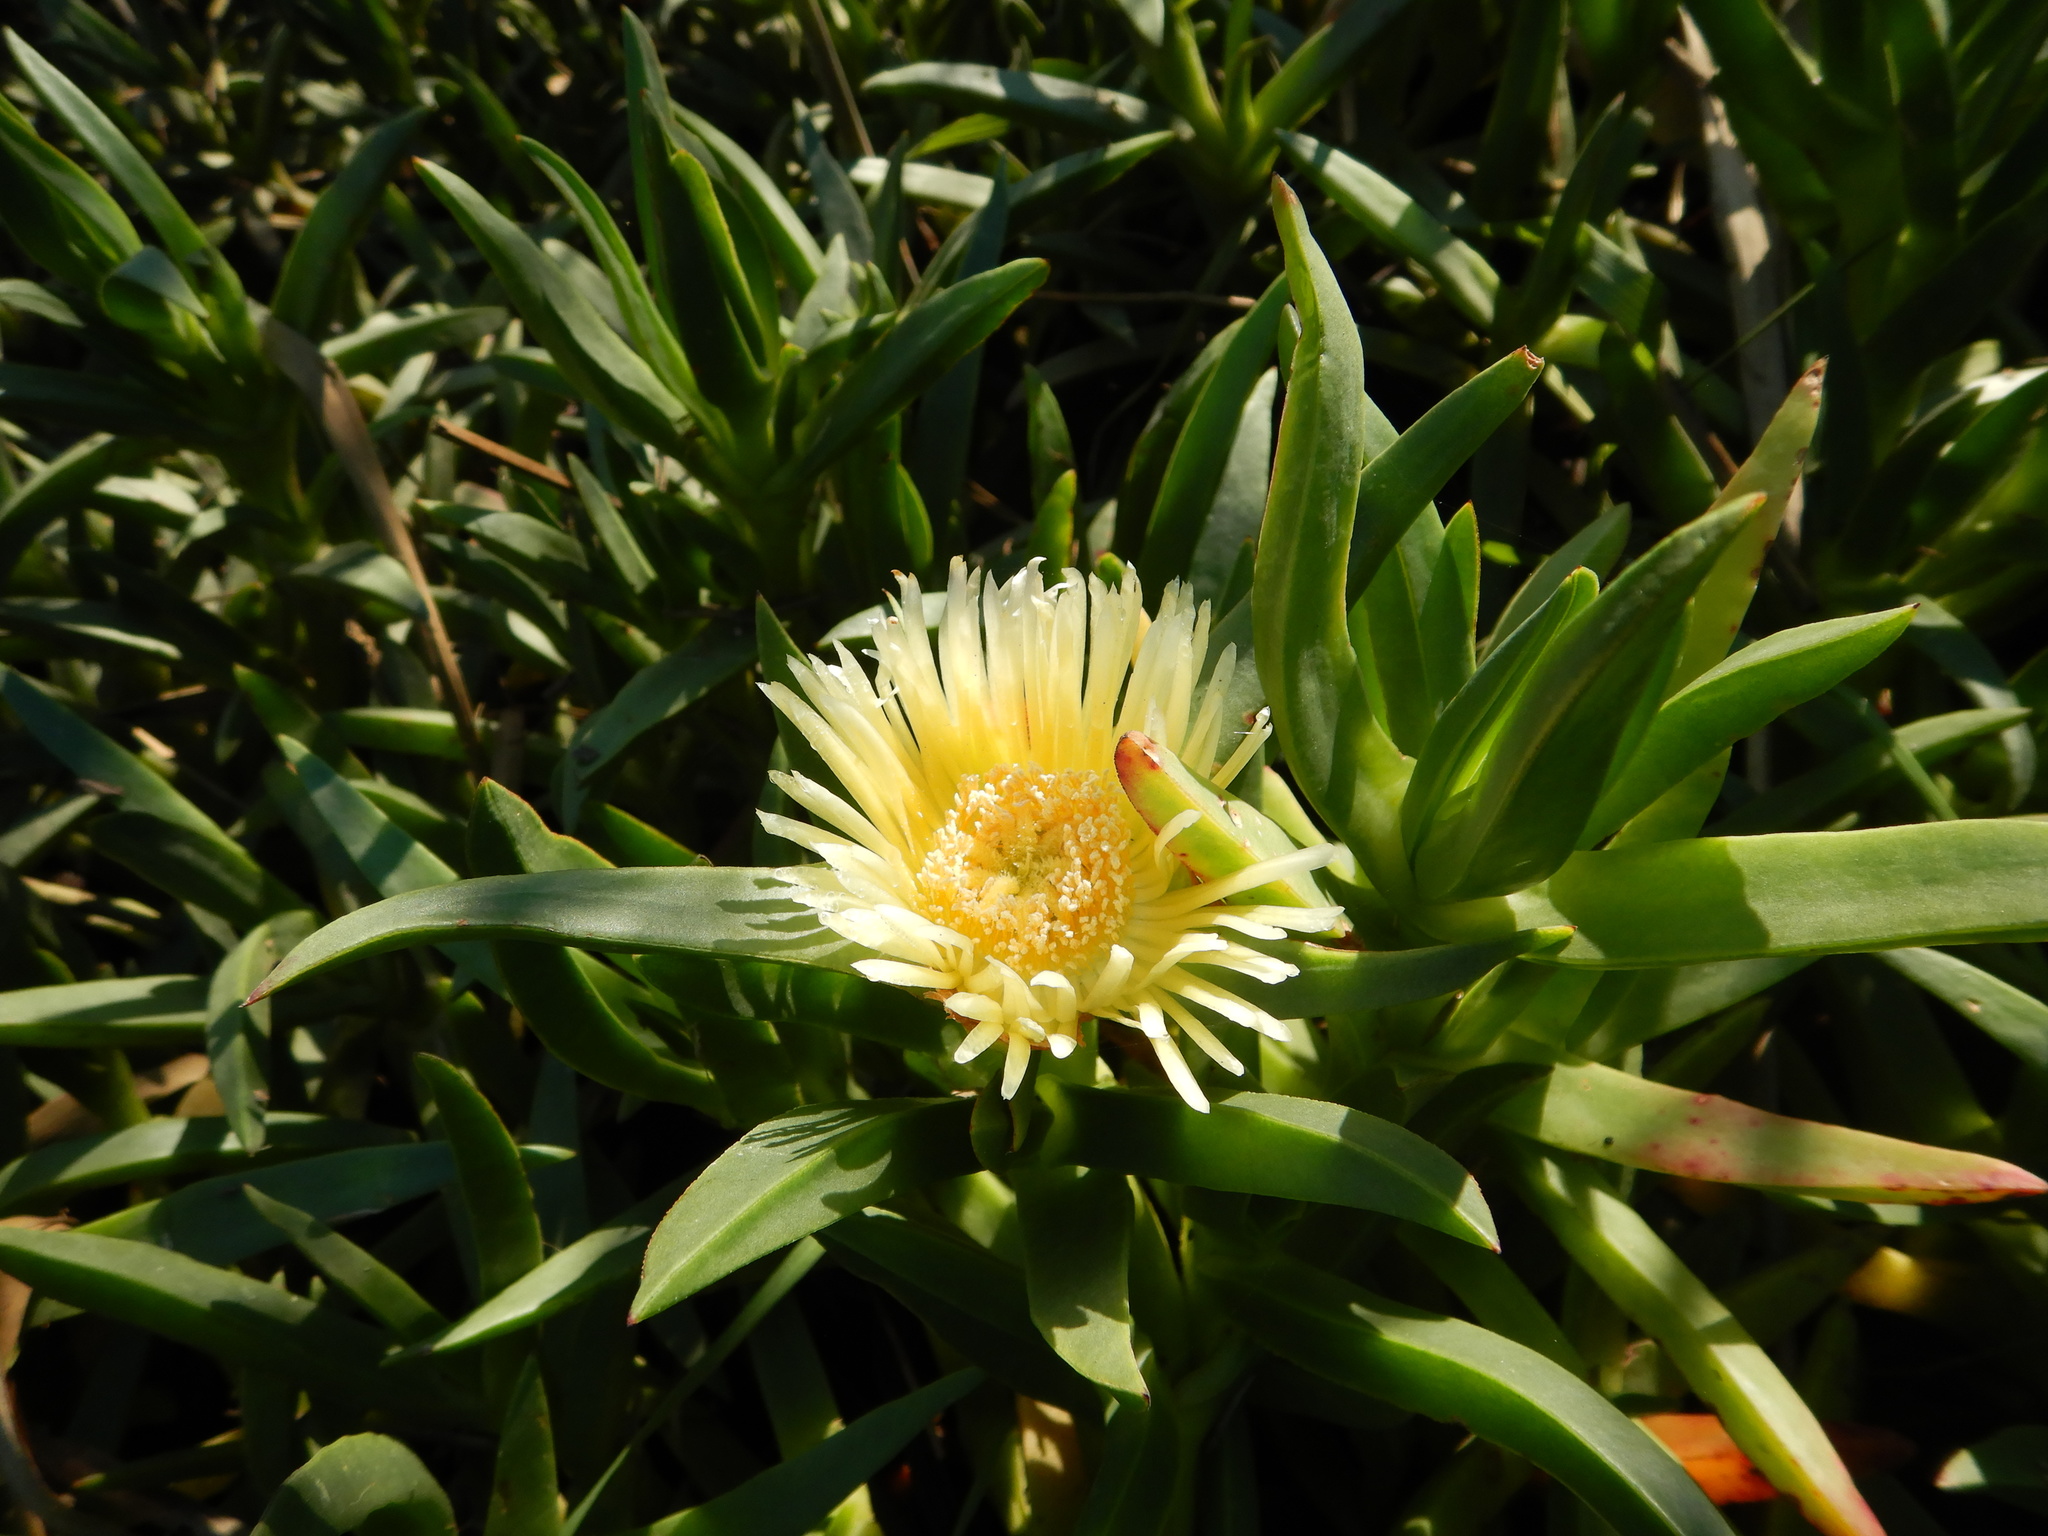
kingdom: Plantae
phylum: Tracheophyta
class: Magnoliopsida
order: Caryophyllales
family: Aizoaceae
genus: Carpobrotus
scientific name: Carpobrotus edulis
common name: Hottentot-fig
